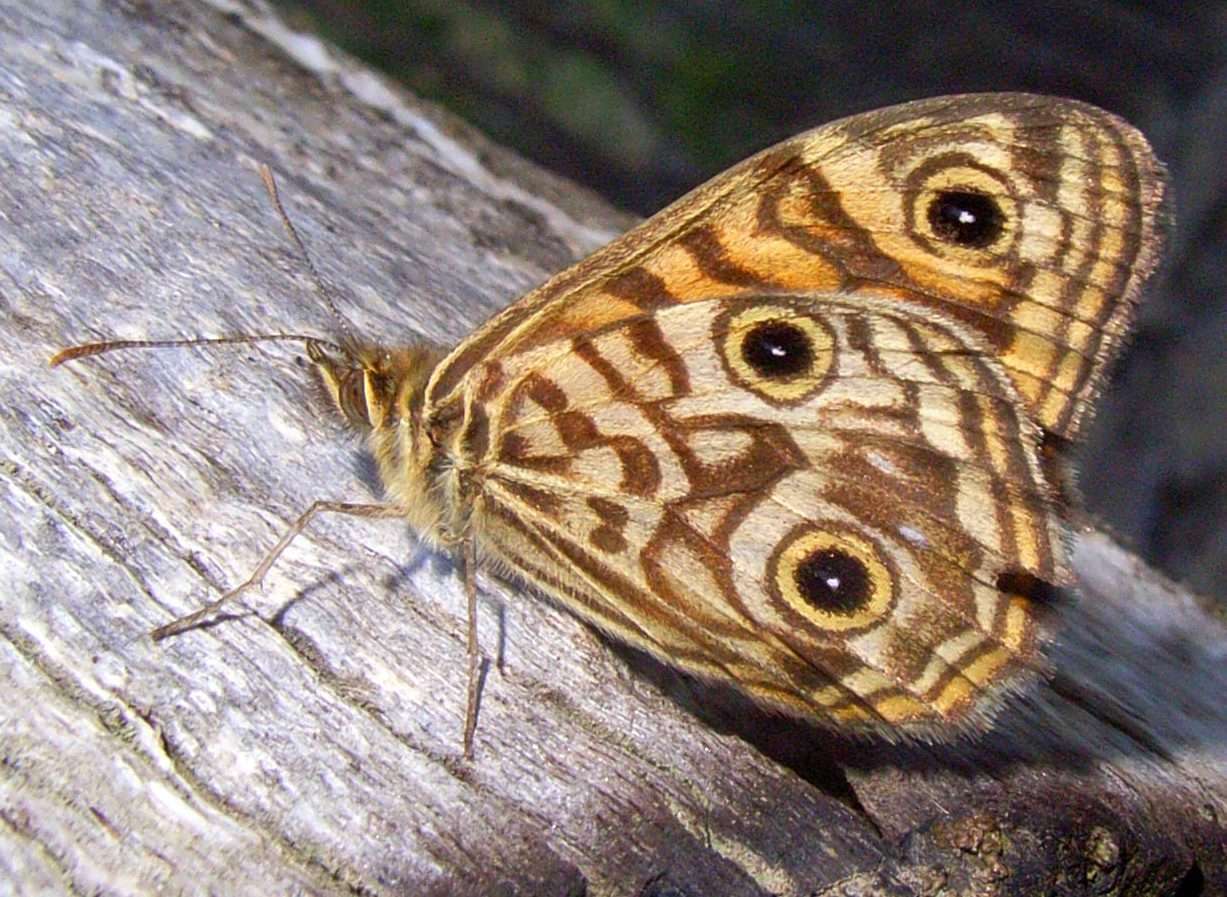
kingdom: Animalia
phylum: Arthropoda
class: Insecta
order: Lepidoptera
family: Nymphalidae
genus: Geitoneura
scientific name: Geitoneura acantha
